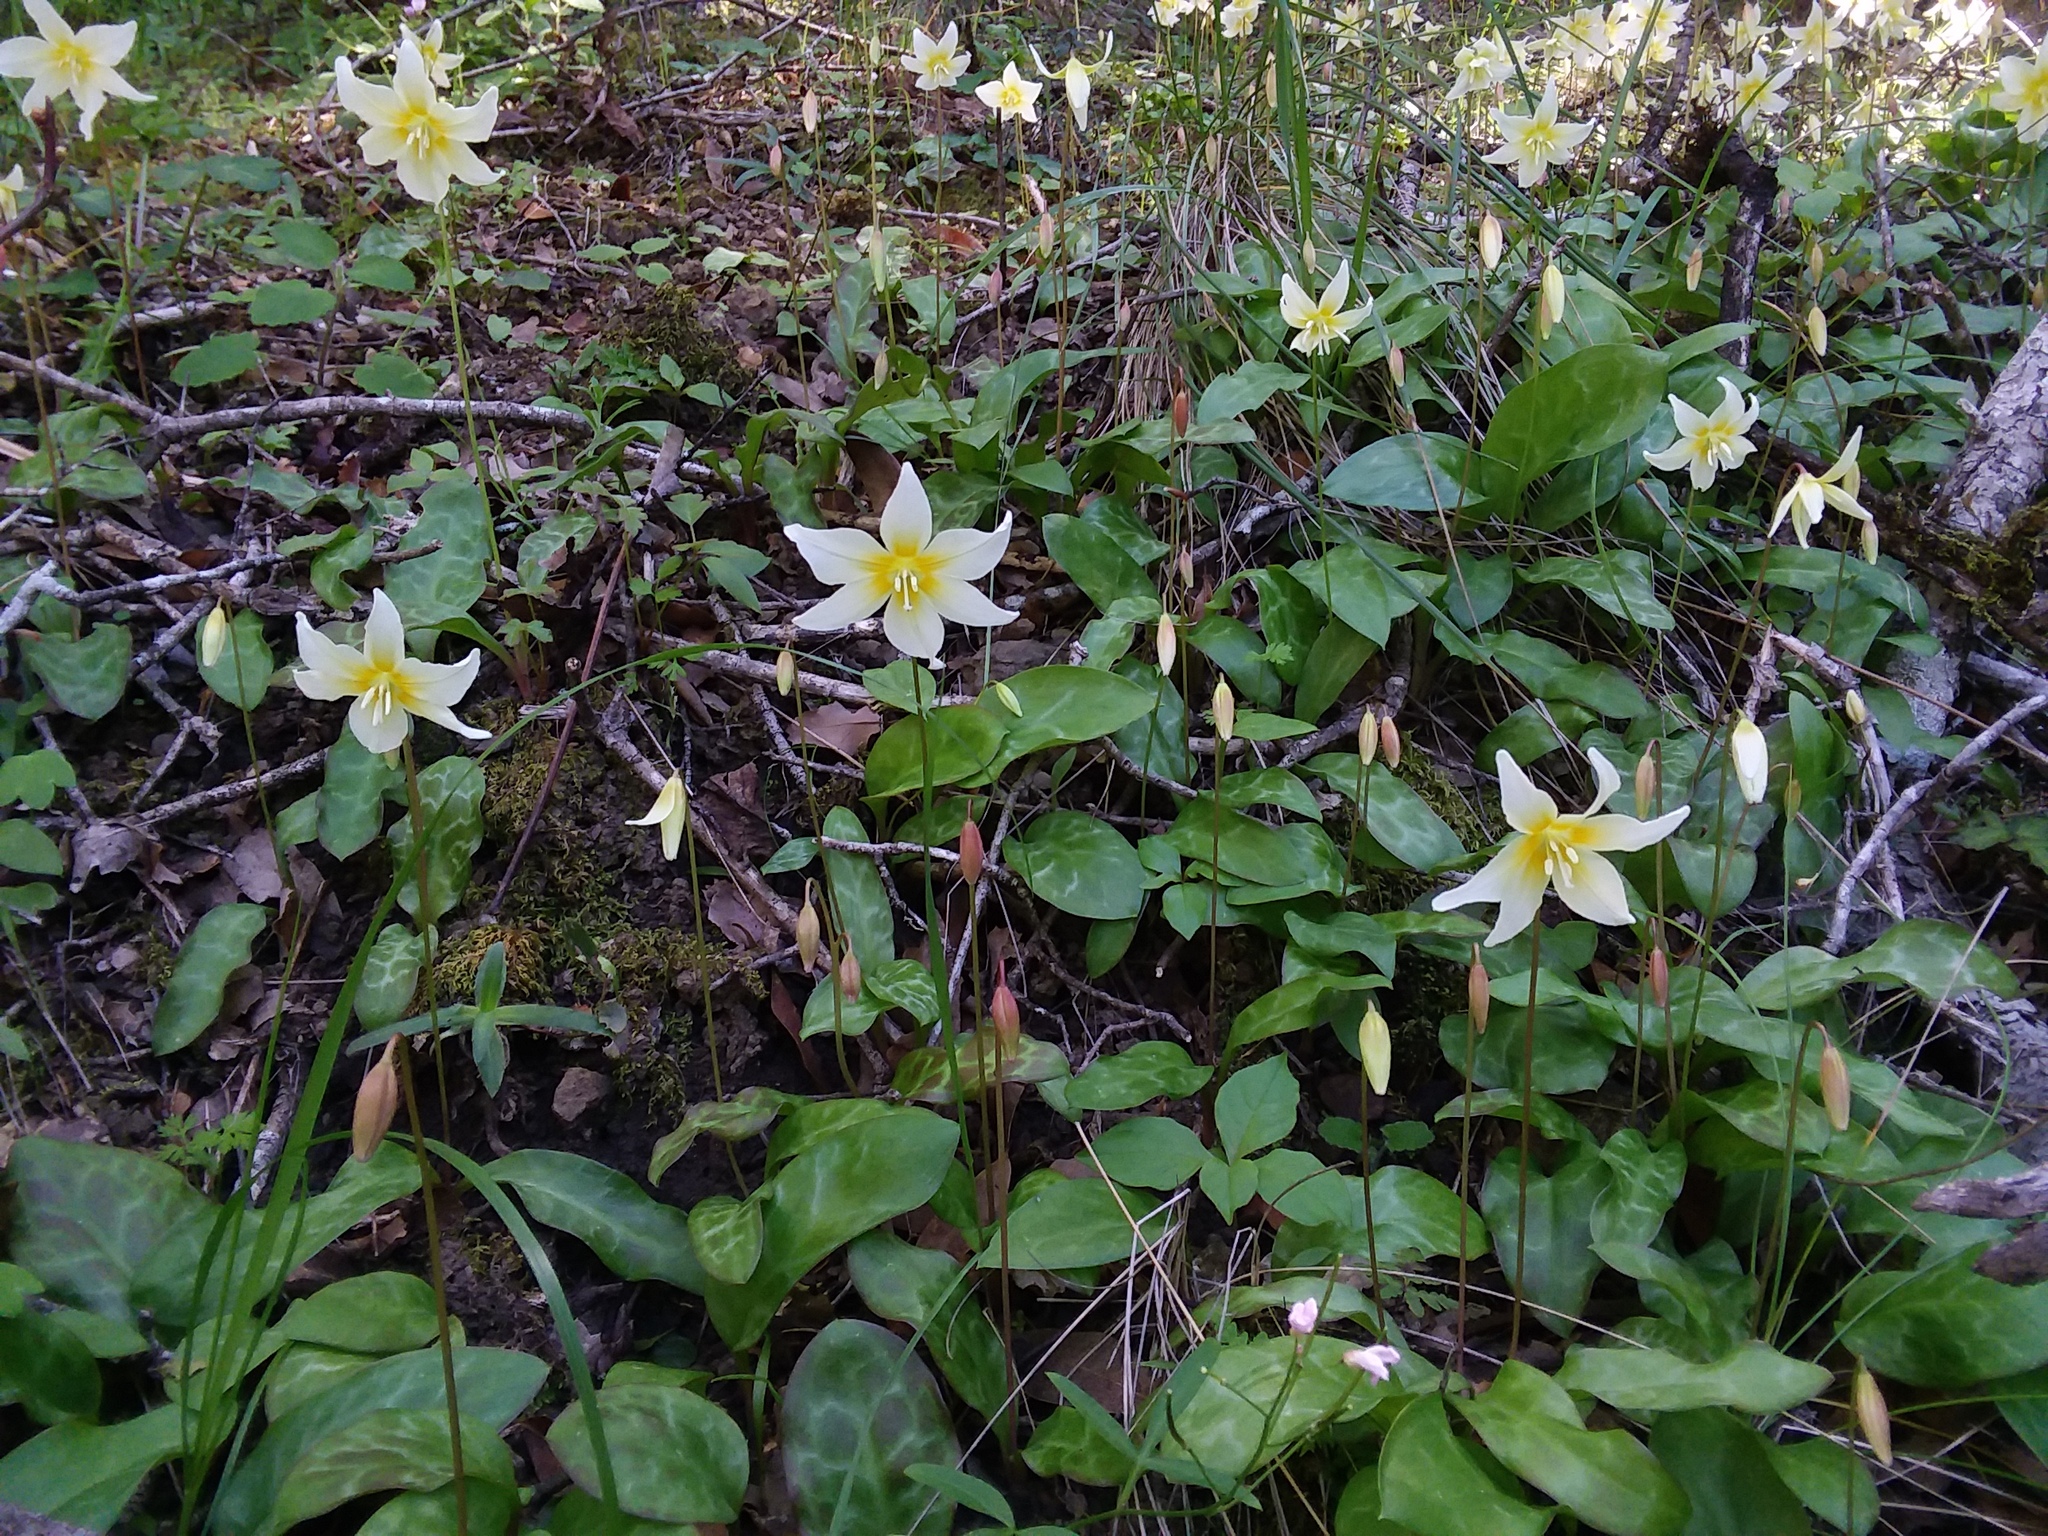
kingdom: Plantae
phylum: Tracheophyta
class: Liliopsida
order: Liliales
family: Liliaceae
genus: Erythronium
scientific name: Erythronium californicum
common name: Fawn-lily
